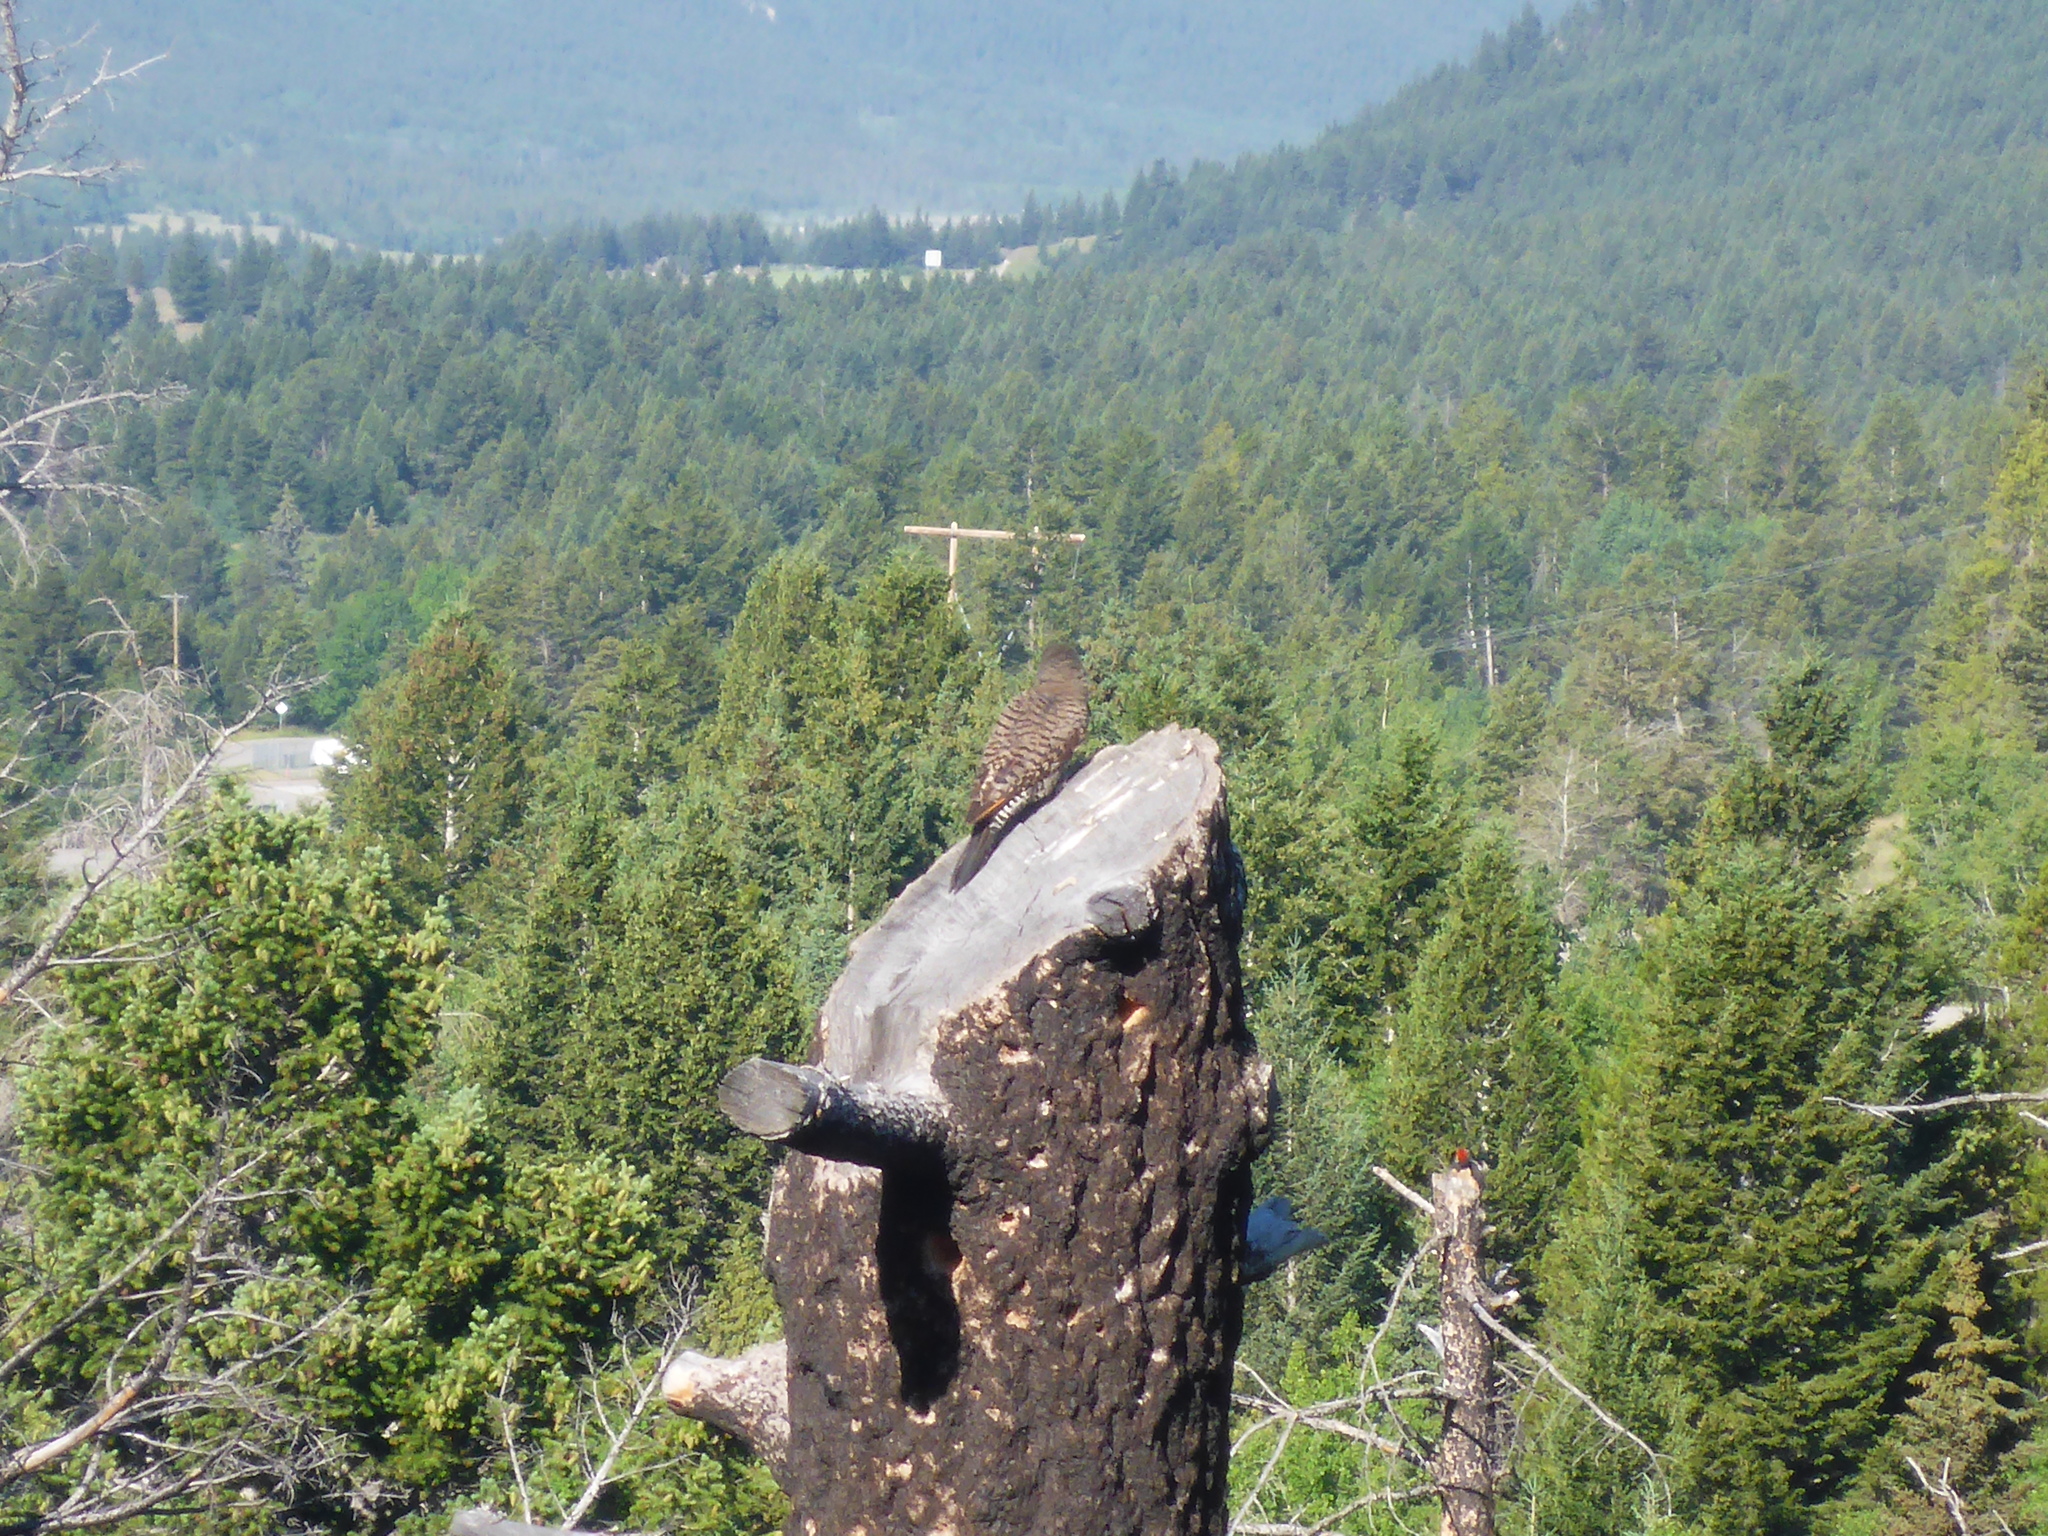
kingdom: Animalia
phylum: Chordata
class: Aves
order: Piciformes
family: Picidae
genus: Colaptes
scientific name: Colaptes auratus
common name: Northern flicker
